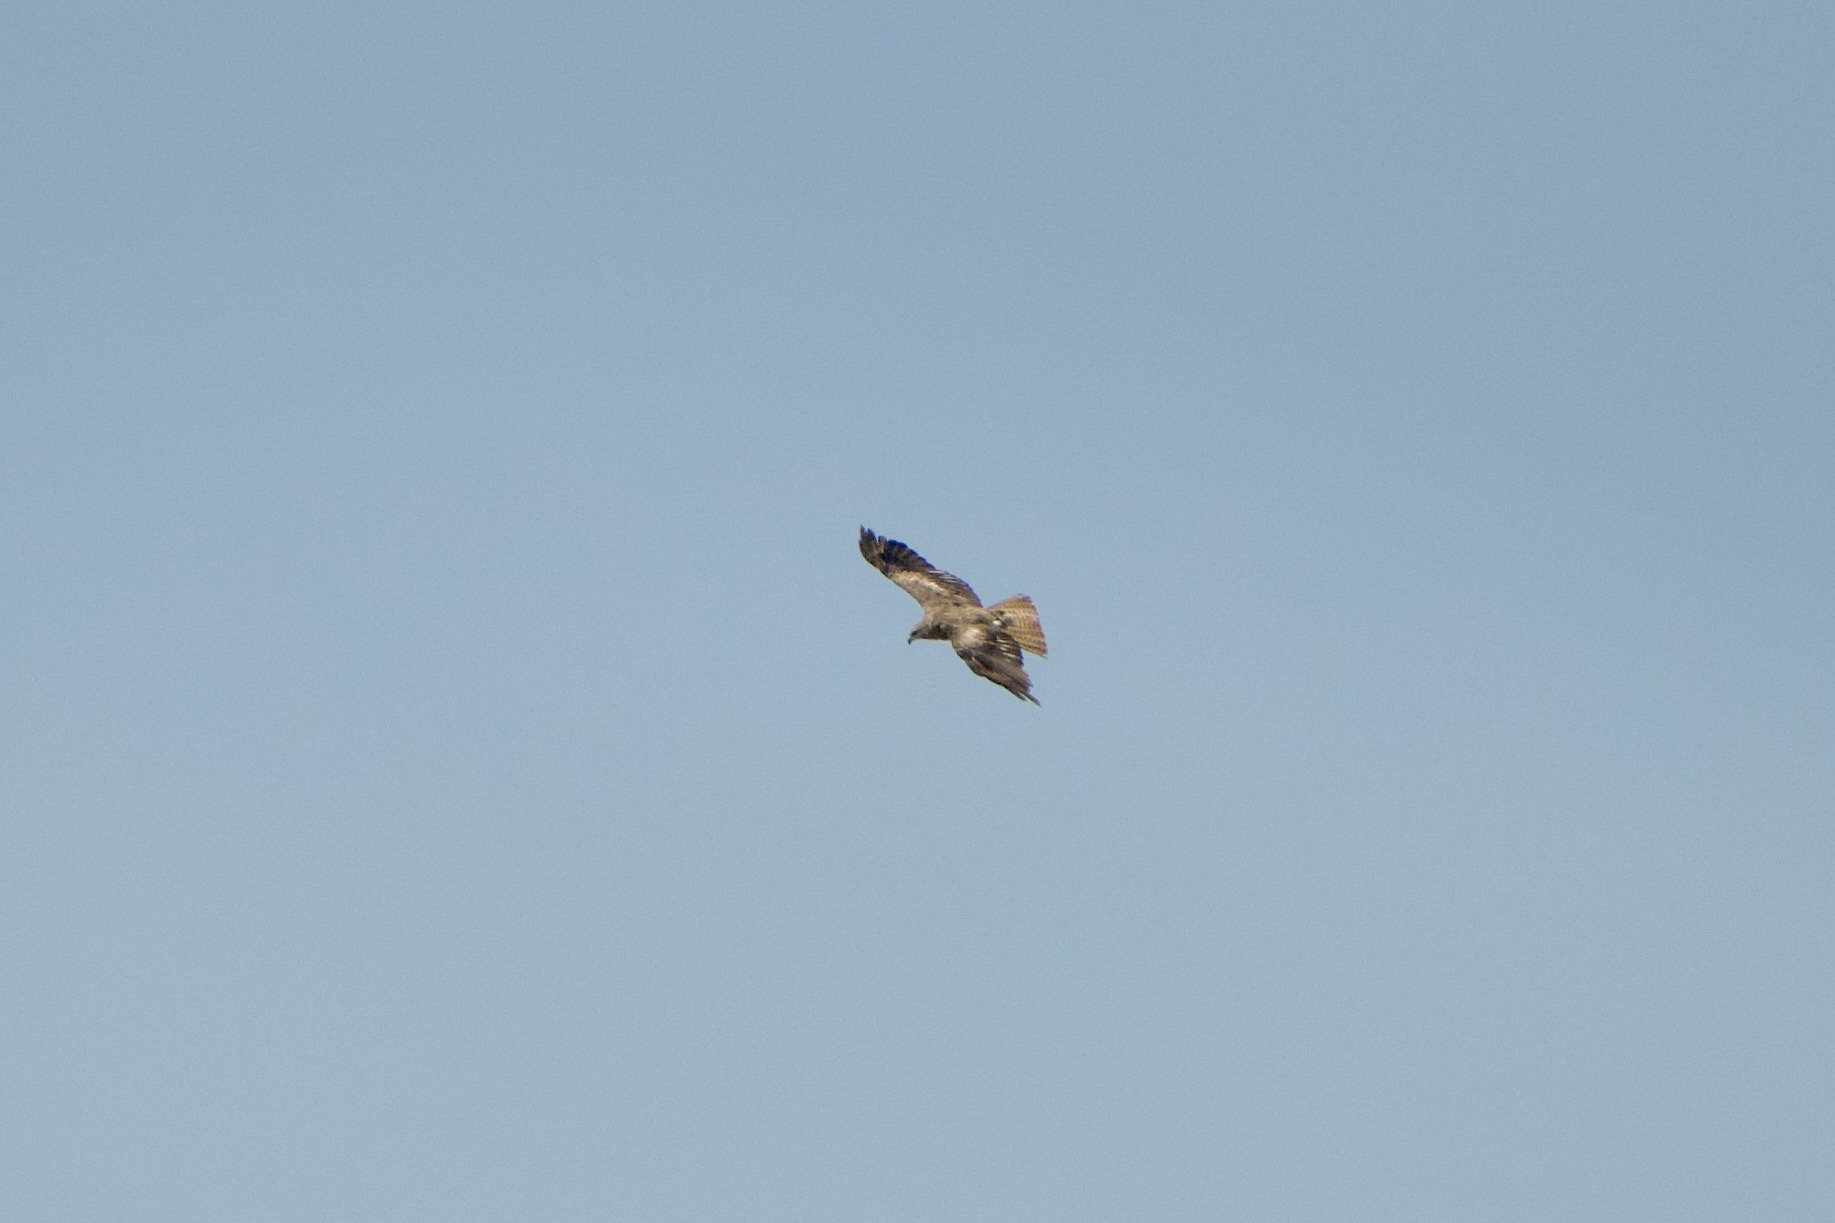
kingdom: Animalia
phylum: Chordata
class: Aves
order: Accipitriformes
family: Accipitridae
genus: Milvus
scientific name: Milvus migrans
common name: Black kite
